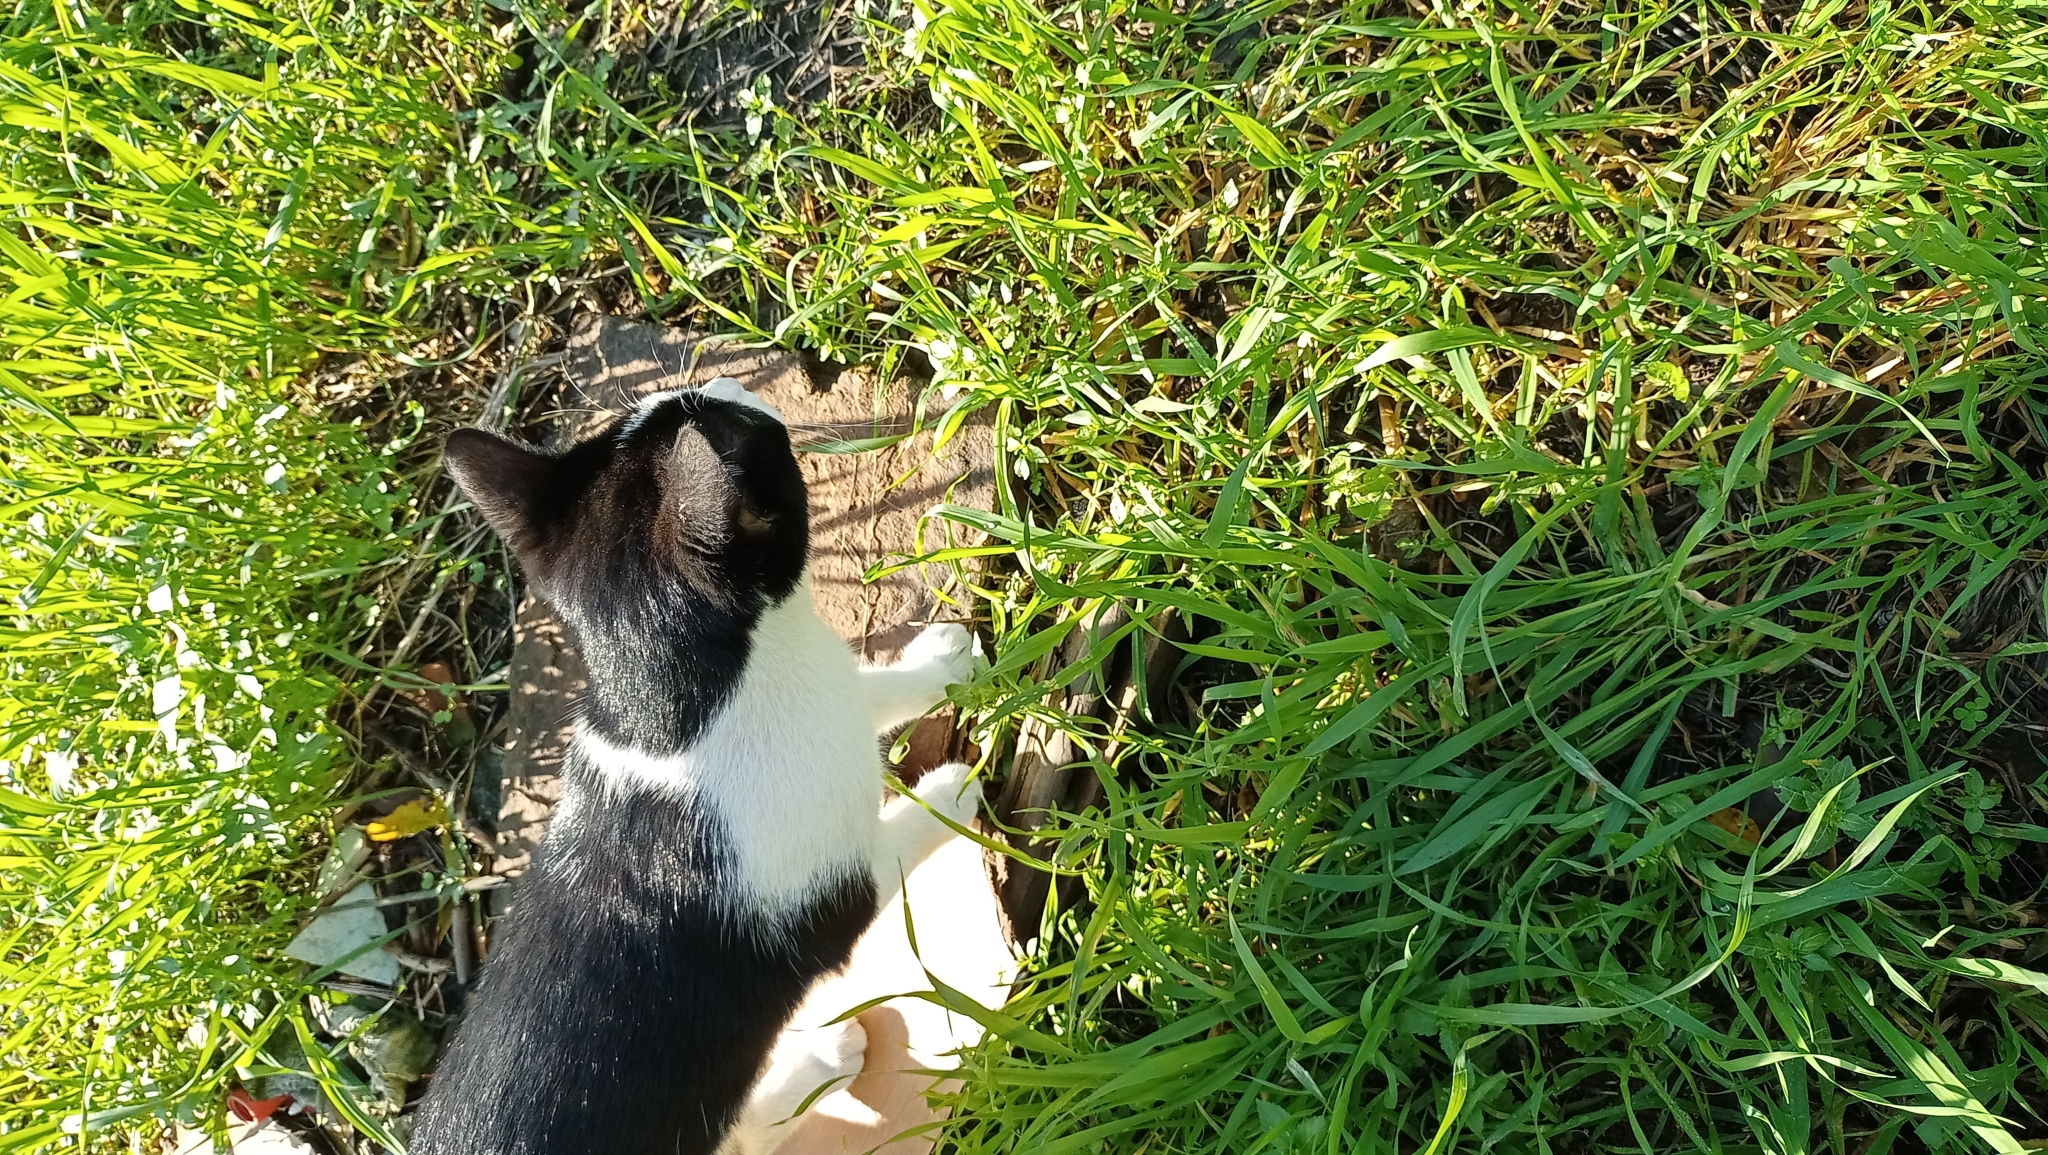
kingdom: Animalia
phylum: Chordata
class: Mammalia
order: Carnivora
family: Felidae
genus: Felis
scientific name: Felis catus
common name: Domestic cat
